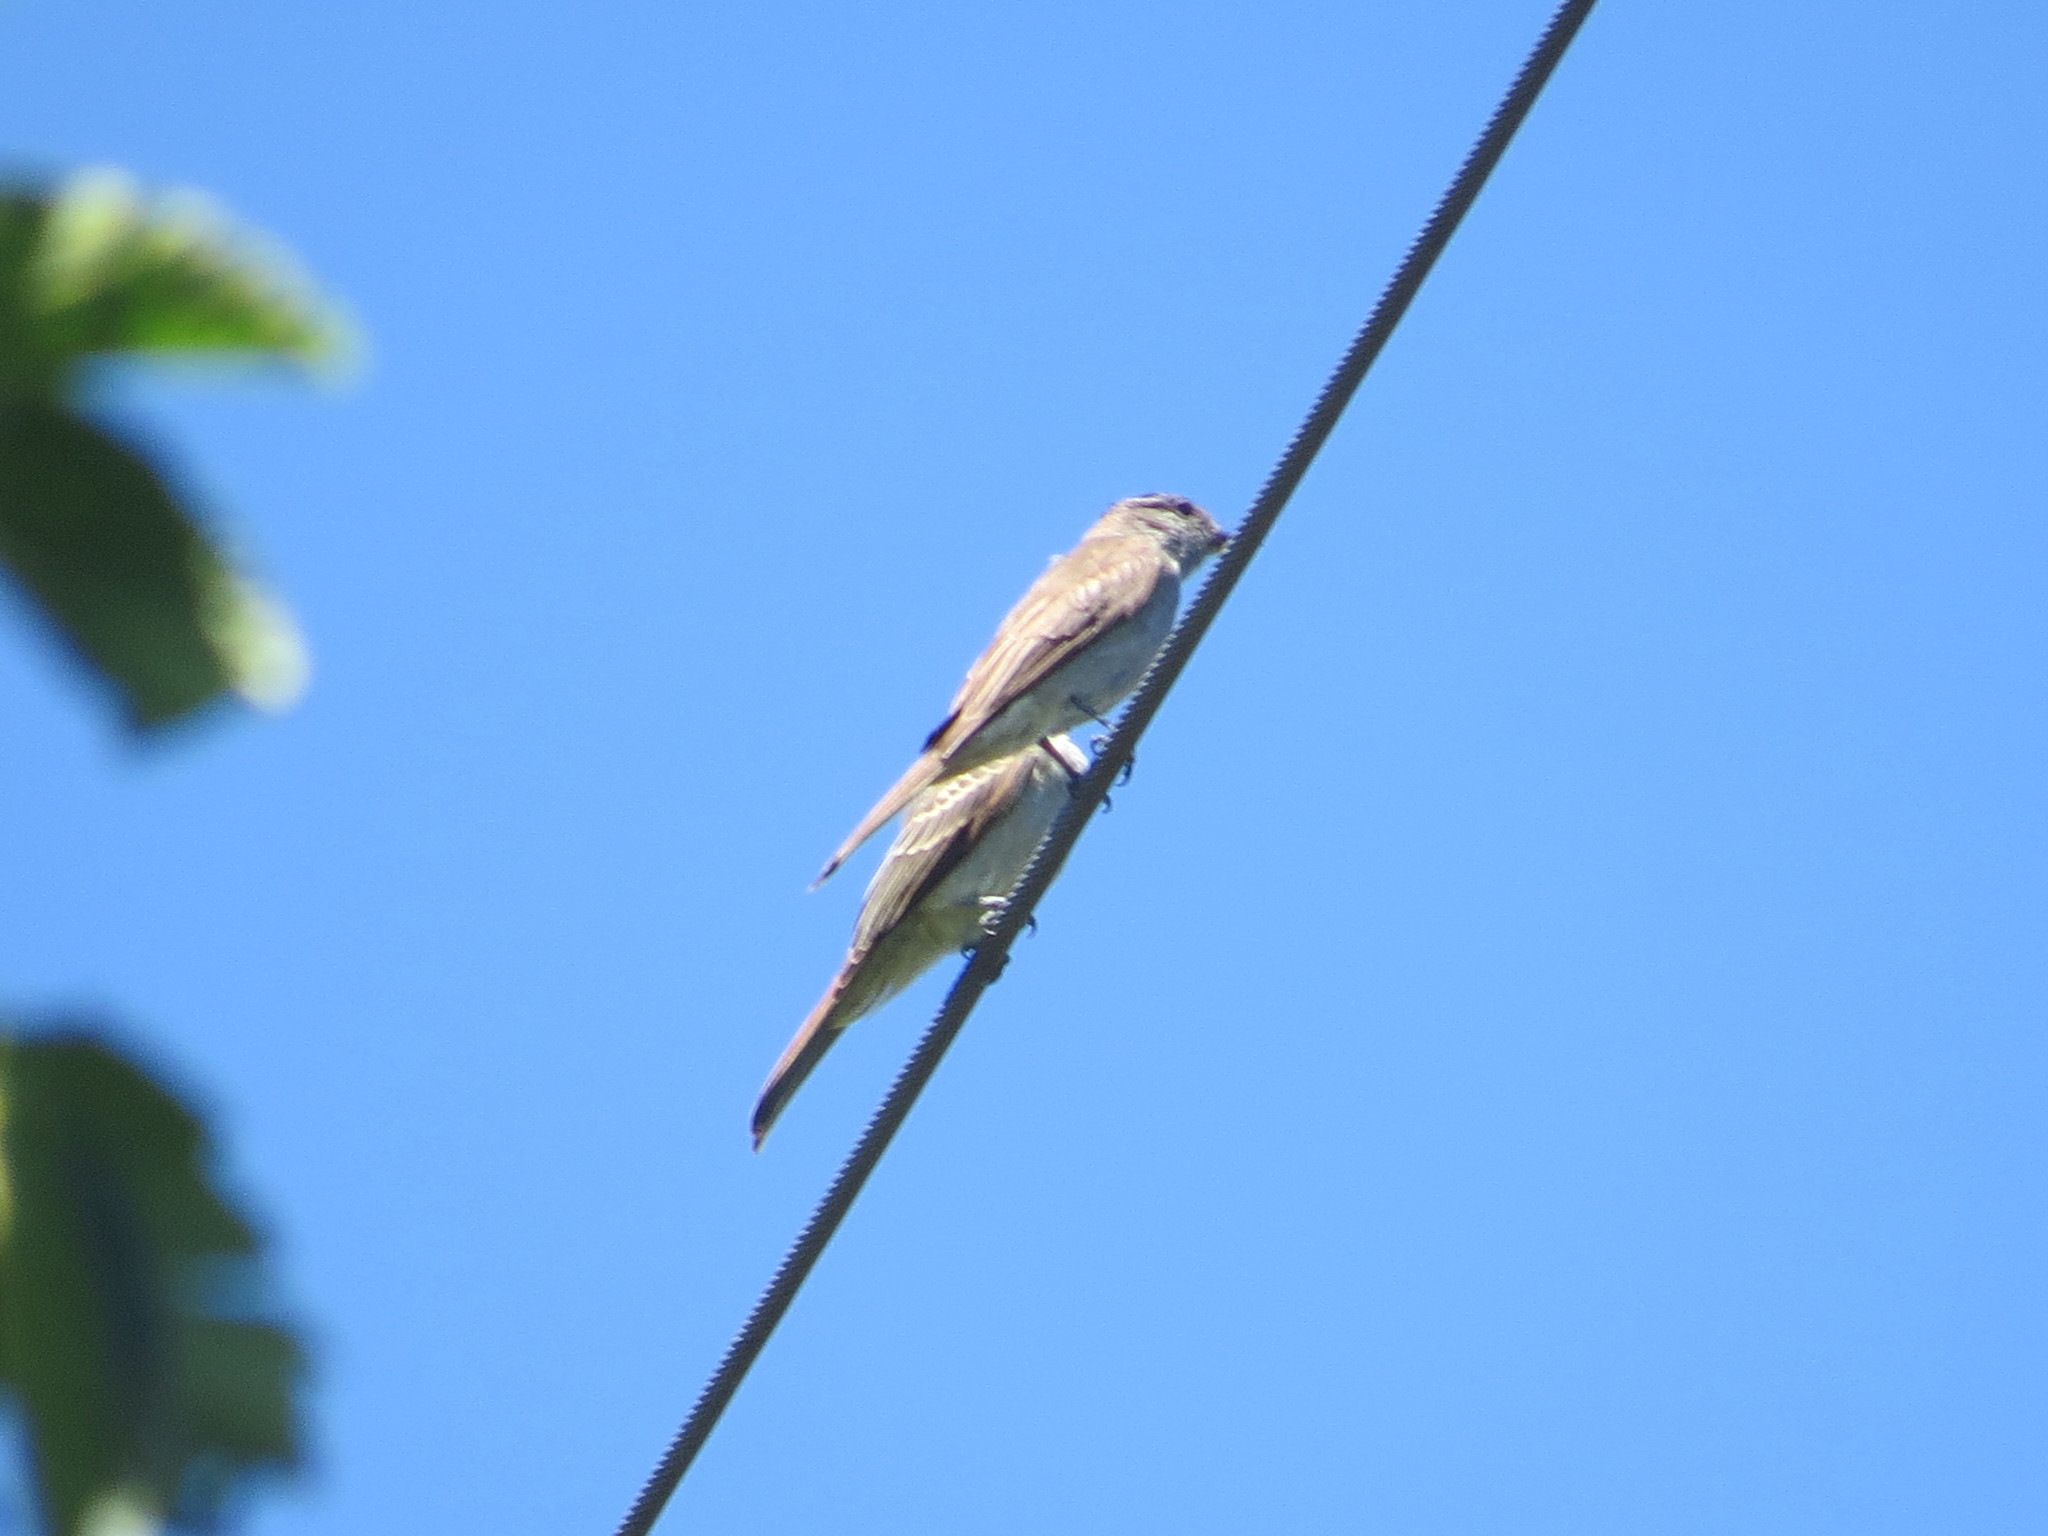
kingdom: Animalia
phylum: Chordata
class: Aves
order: Passeriformes
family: Tyrannidae
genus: Empidonomus
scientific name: Empidonomus aurantioatrocristatus
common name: Crowned slaty flycatcher
